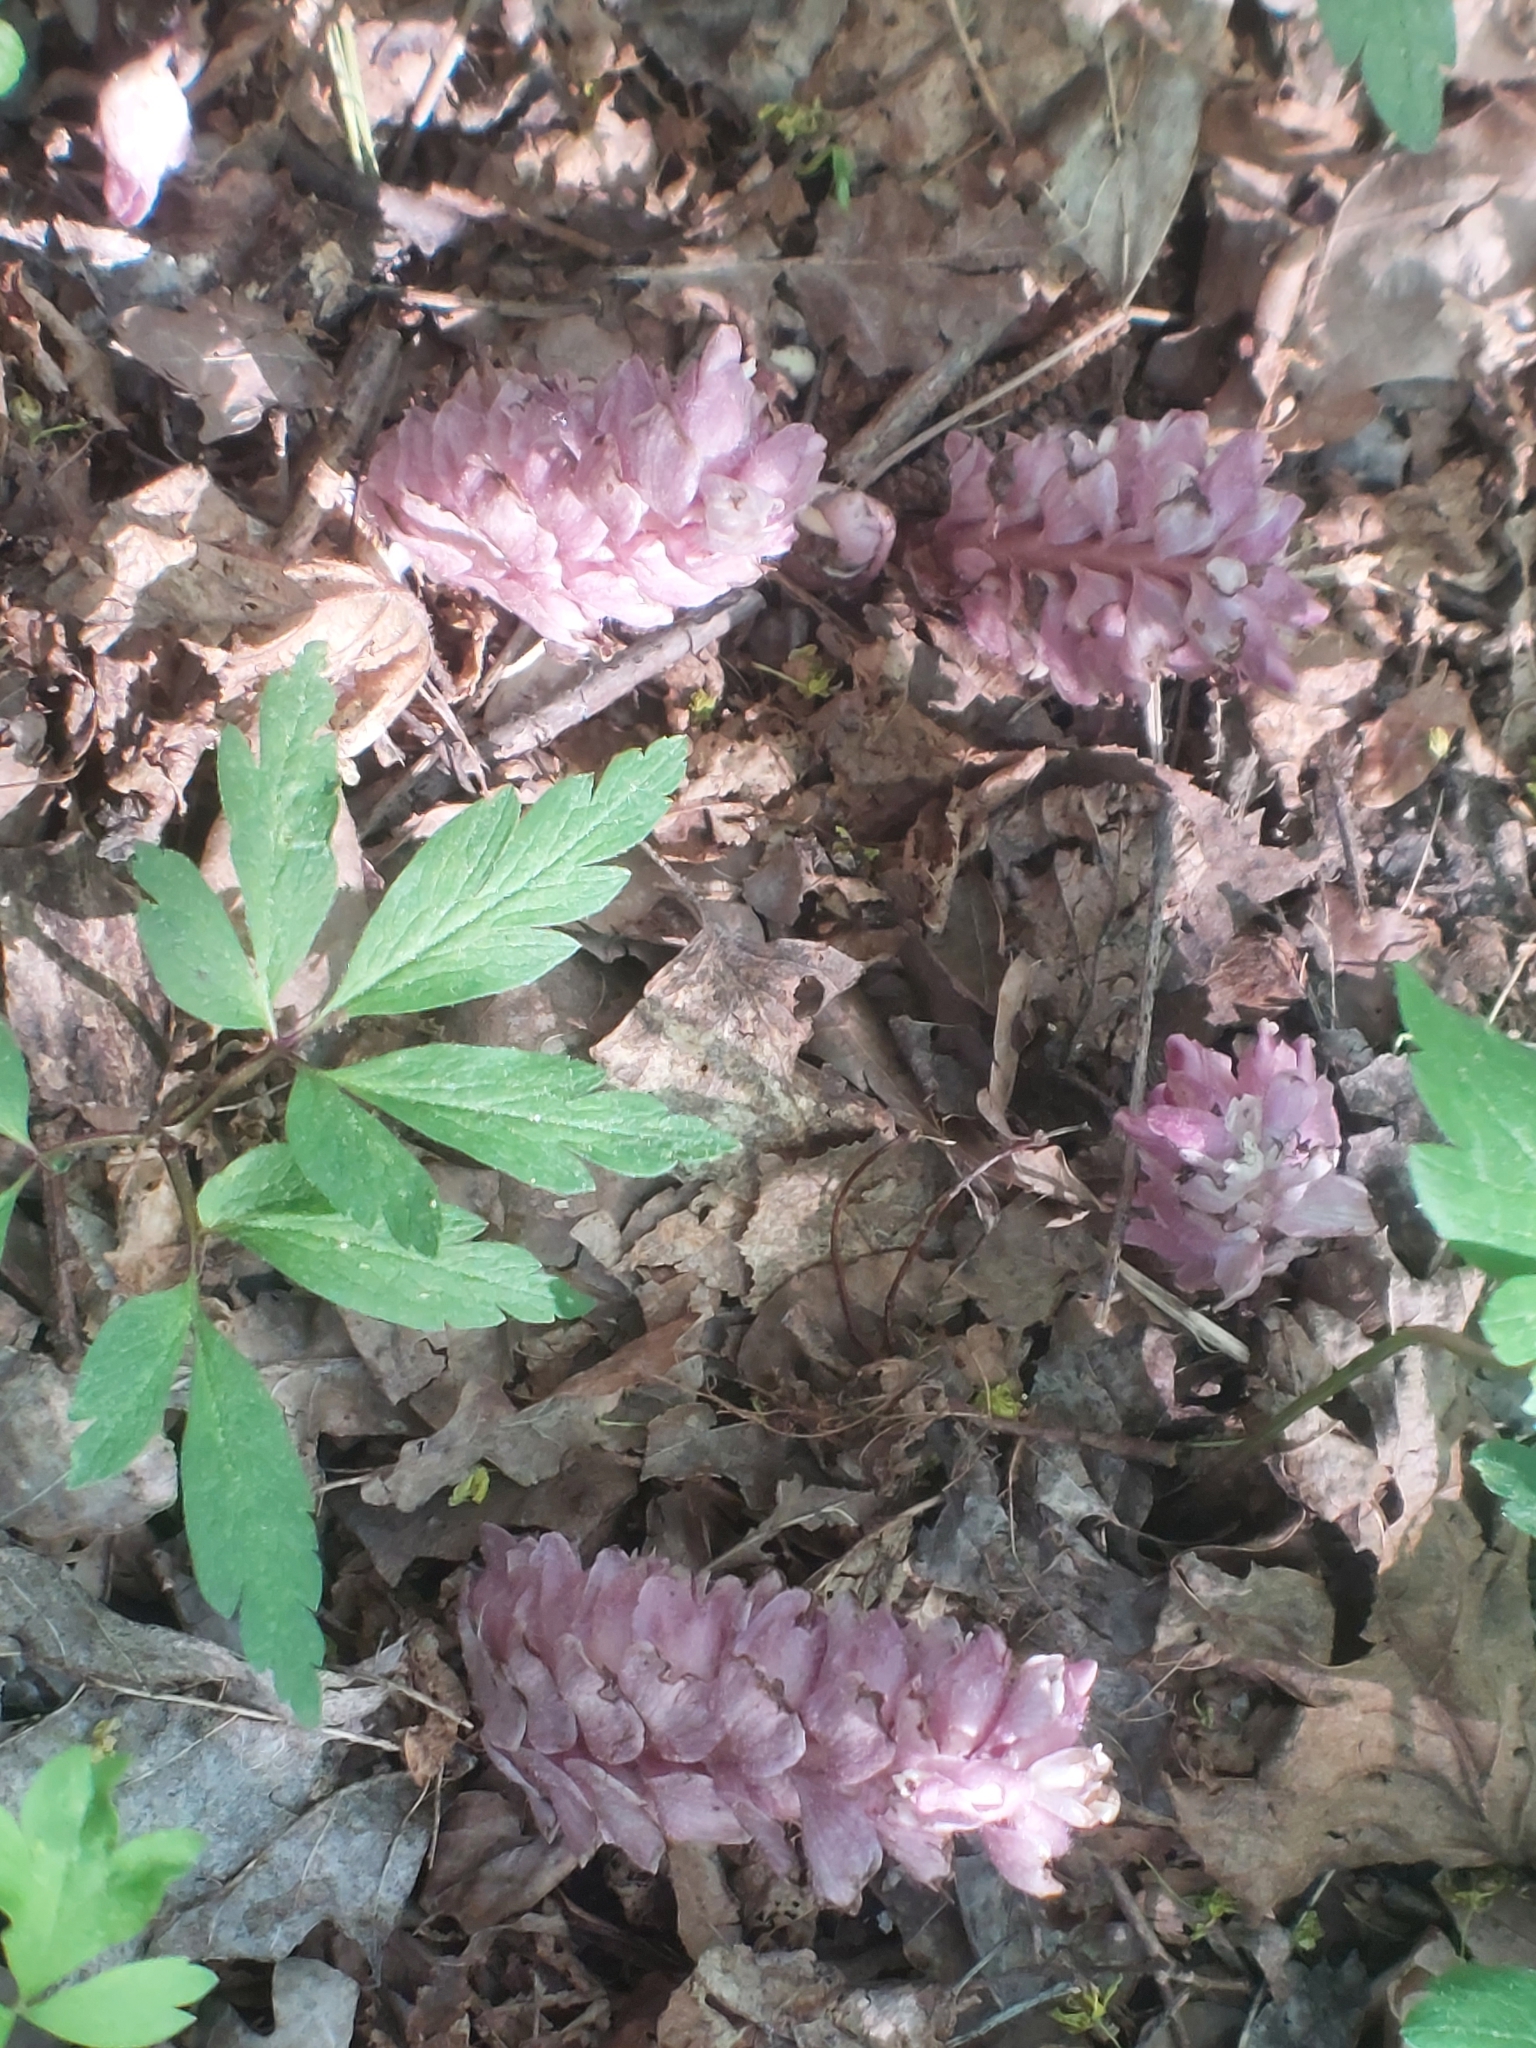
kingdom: Plantae
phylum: Tracheophyta
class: Magnoliopsida
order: Lamiales
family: Orobanchaceae
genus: Lathraea
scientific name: Lathraea squamaria
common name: Toothwort
